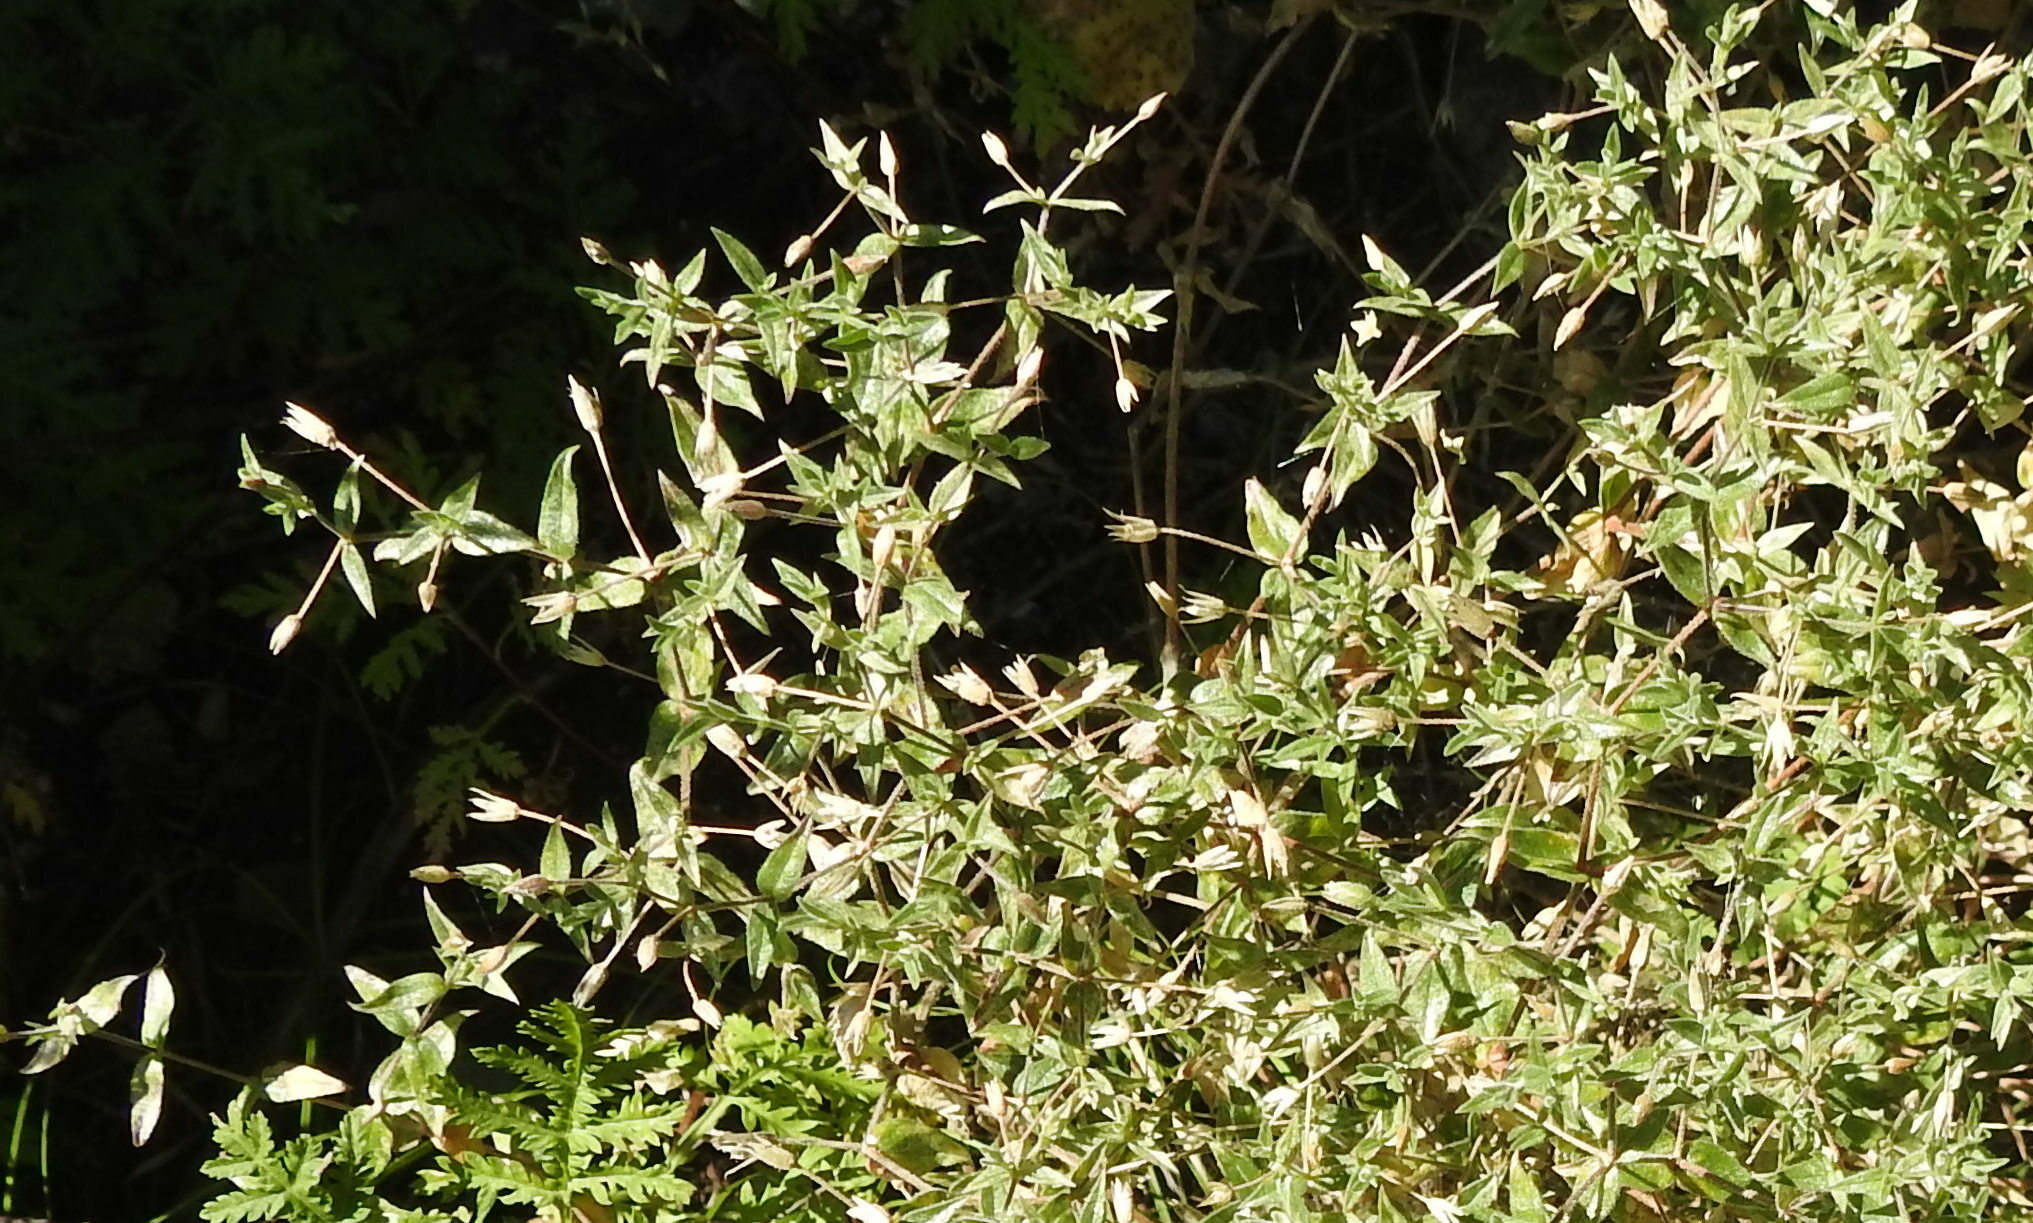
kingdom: Plantae
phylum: Tracheophyta
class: Magnoliopsida
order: Caryophyllales
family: Caryophyllaceae
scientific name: Caryophyllaceae
